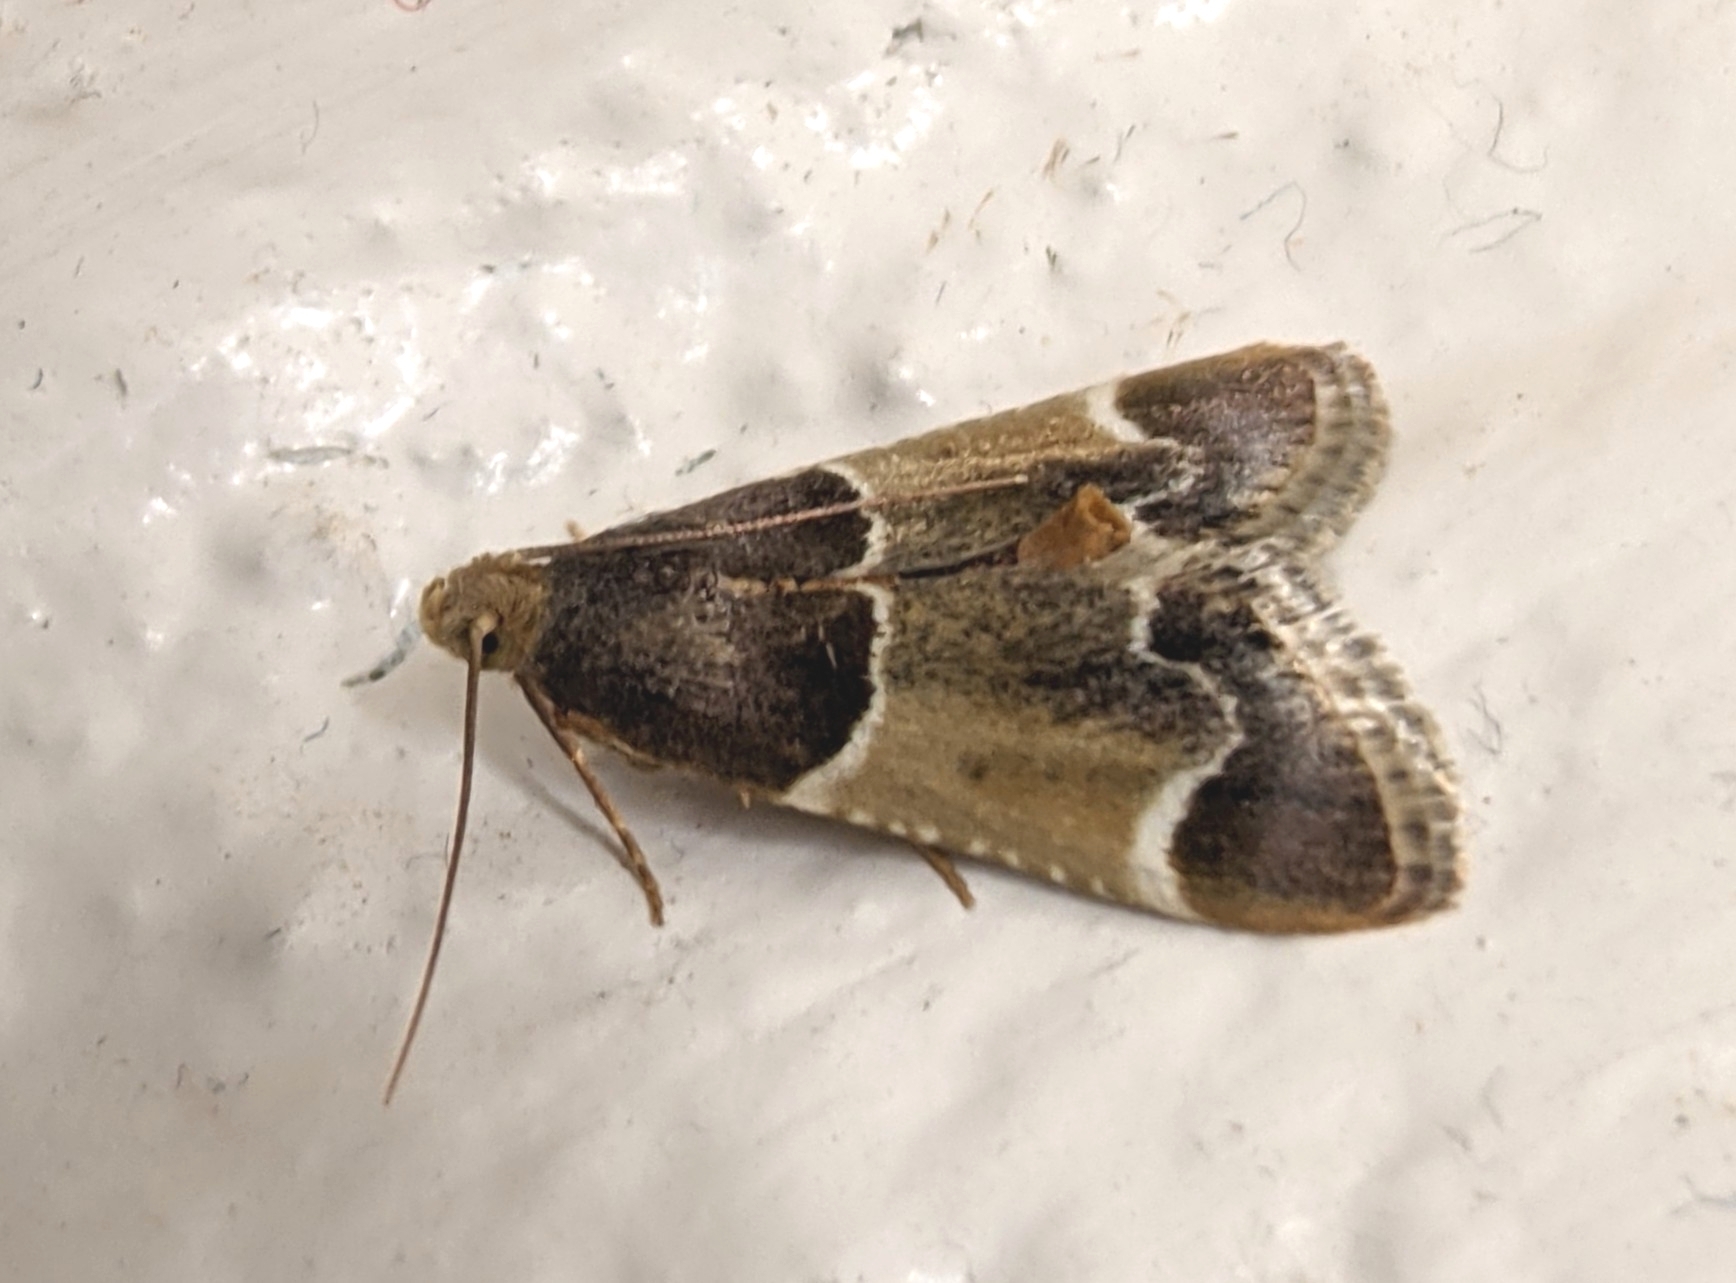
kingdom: Animalia
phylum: Arthropoda
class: Insecta
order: Lepidoptera
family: Pyralidae
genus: Pyralis
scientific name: Pyralis farinalis
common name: Meal moth
